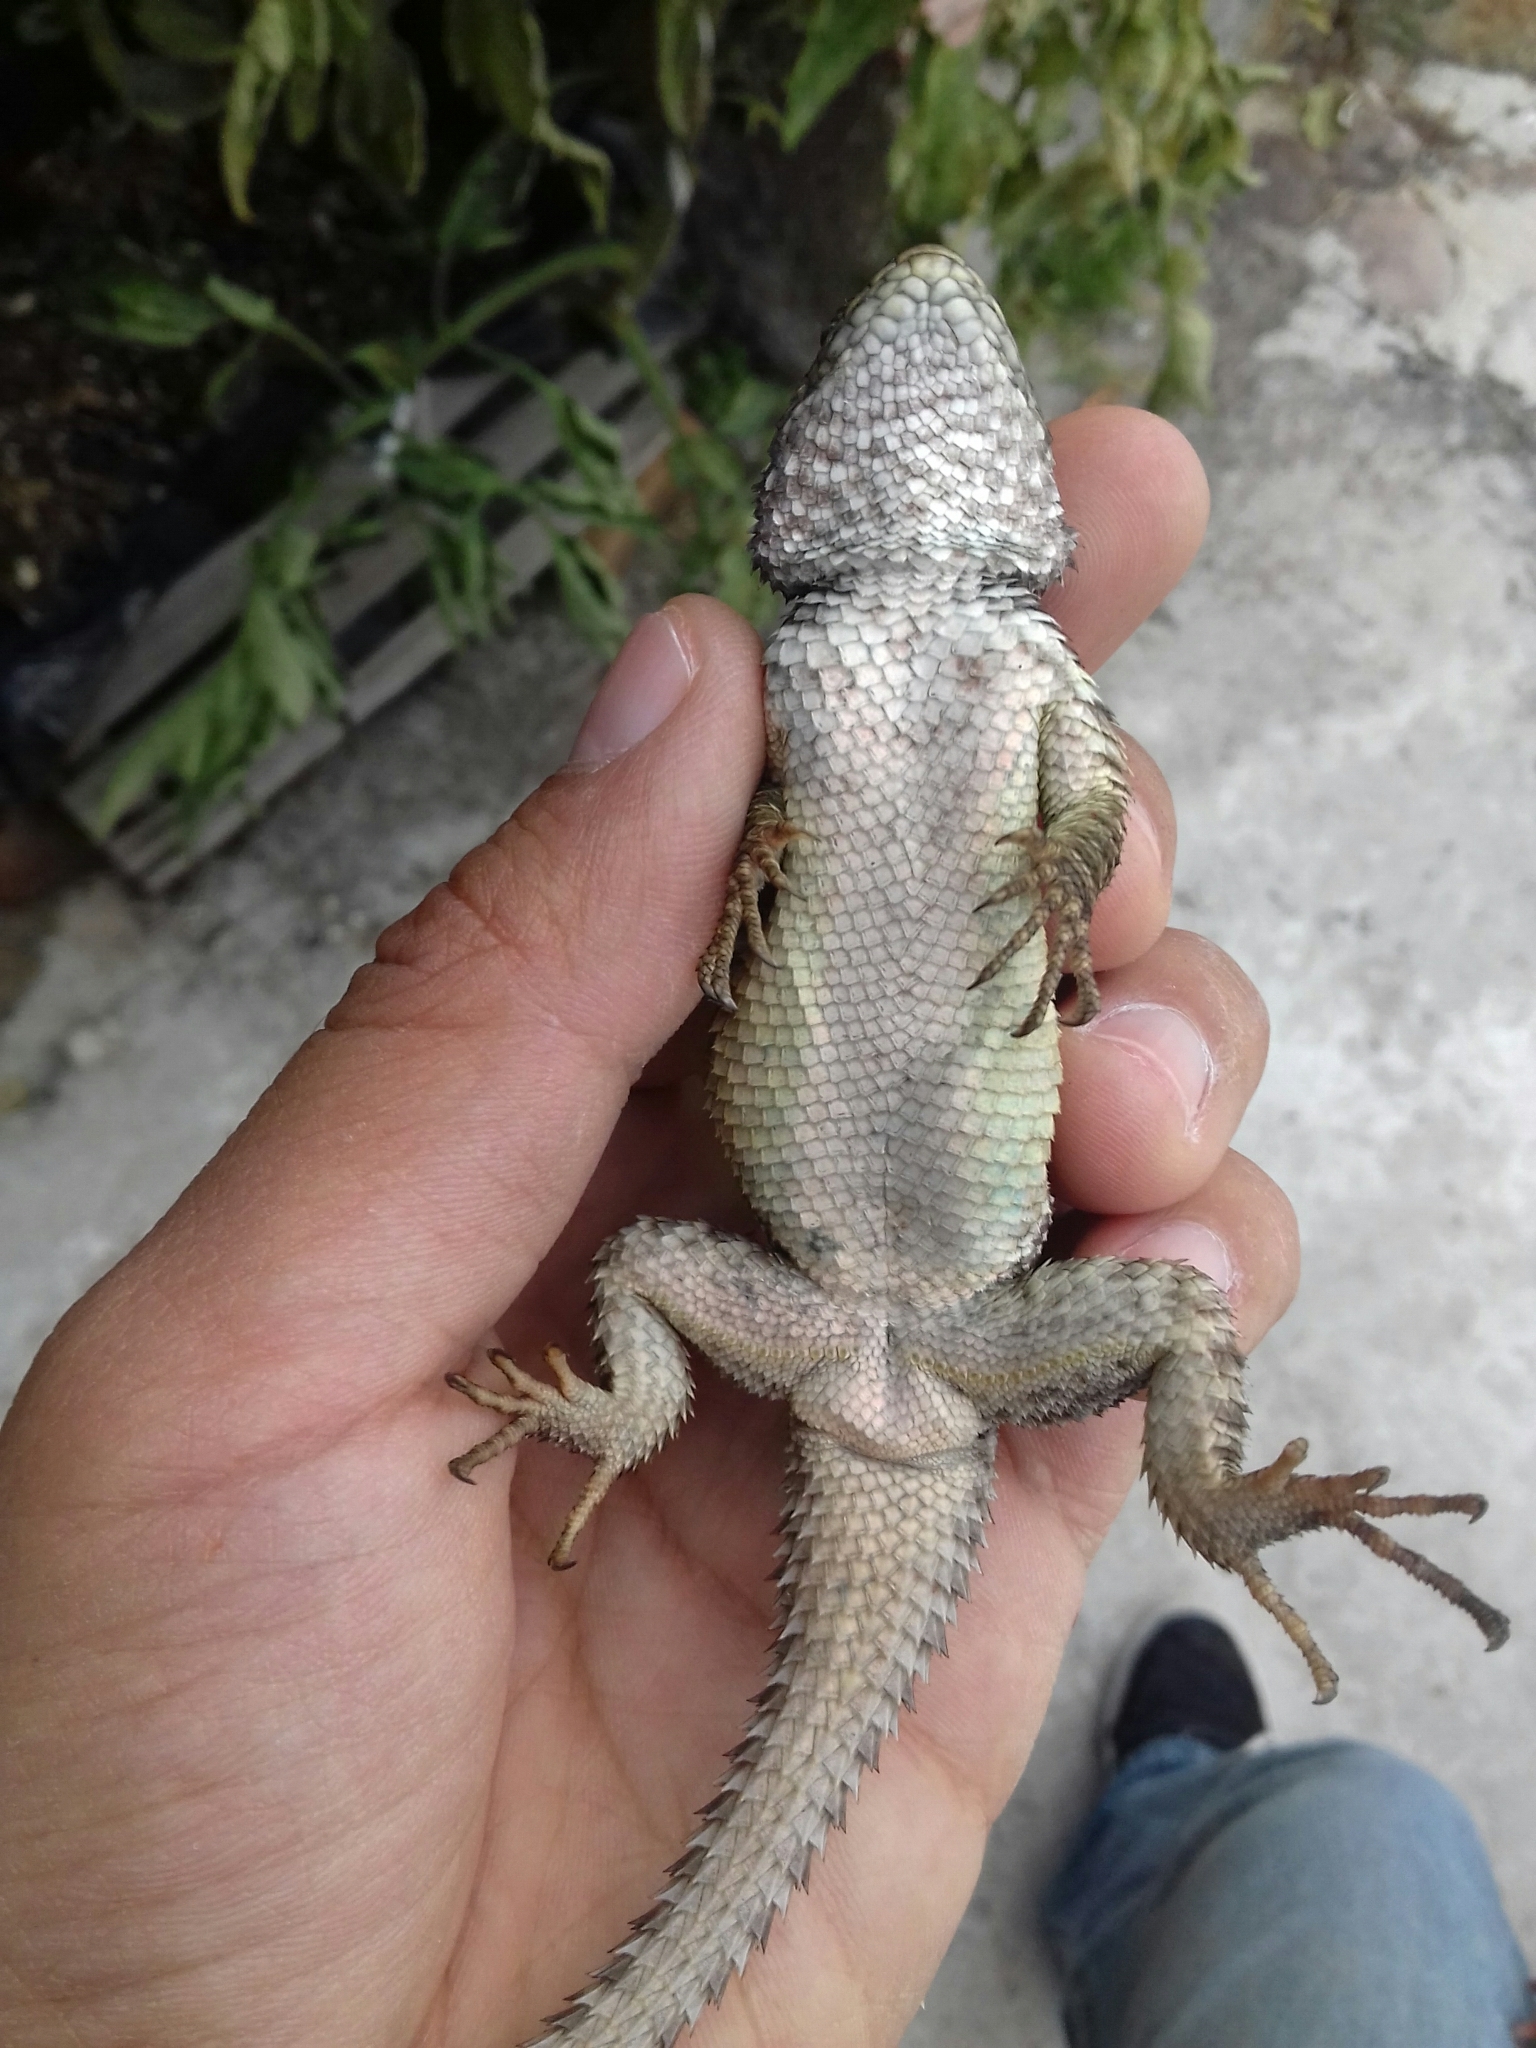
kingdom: Animalia
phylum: Chordata
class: Squamata
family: Phrynosomatidae
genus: Sceloporus
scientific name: Sceloporus mucronatus
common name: Central cleft lizard
